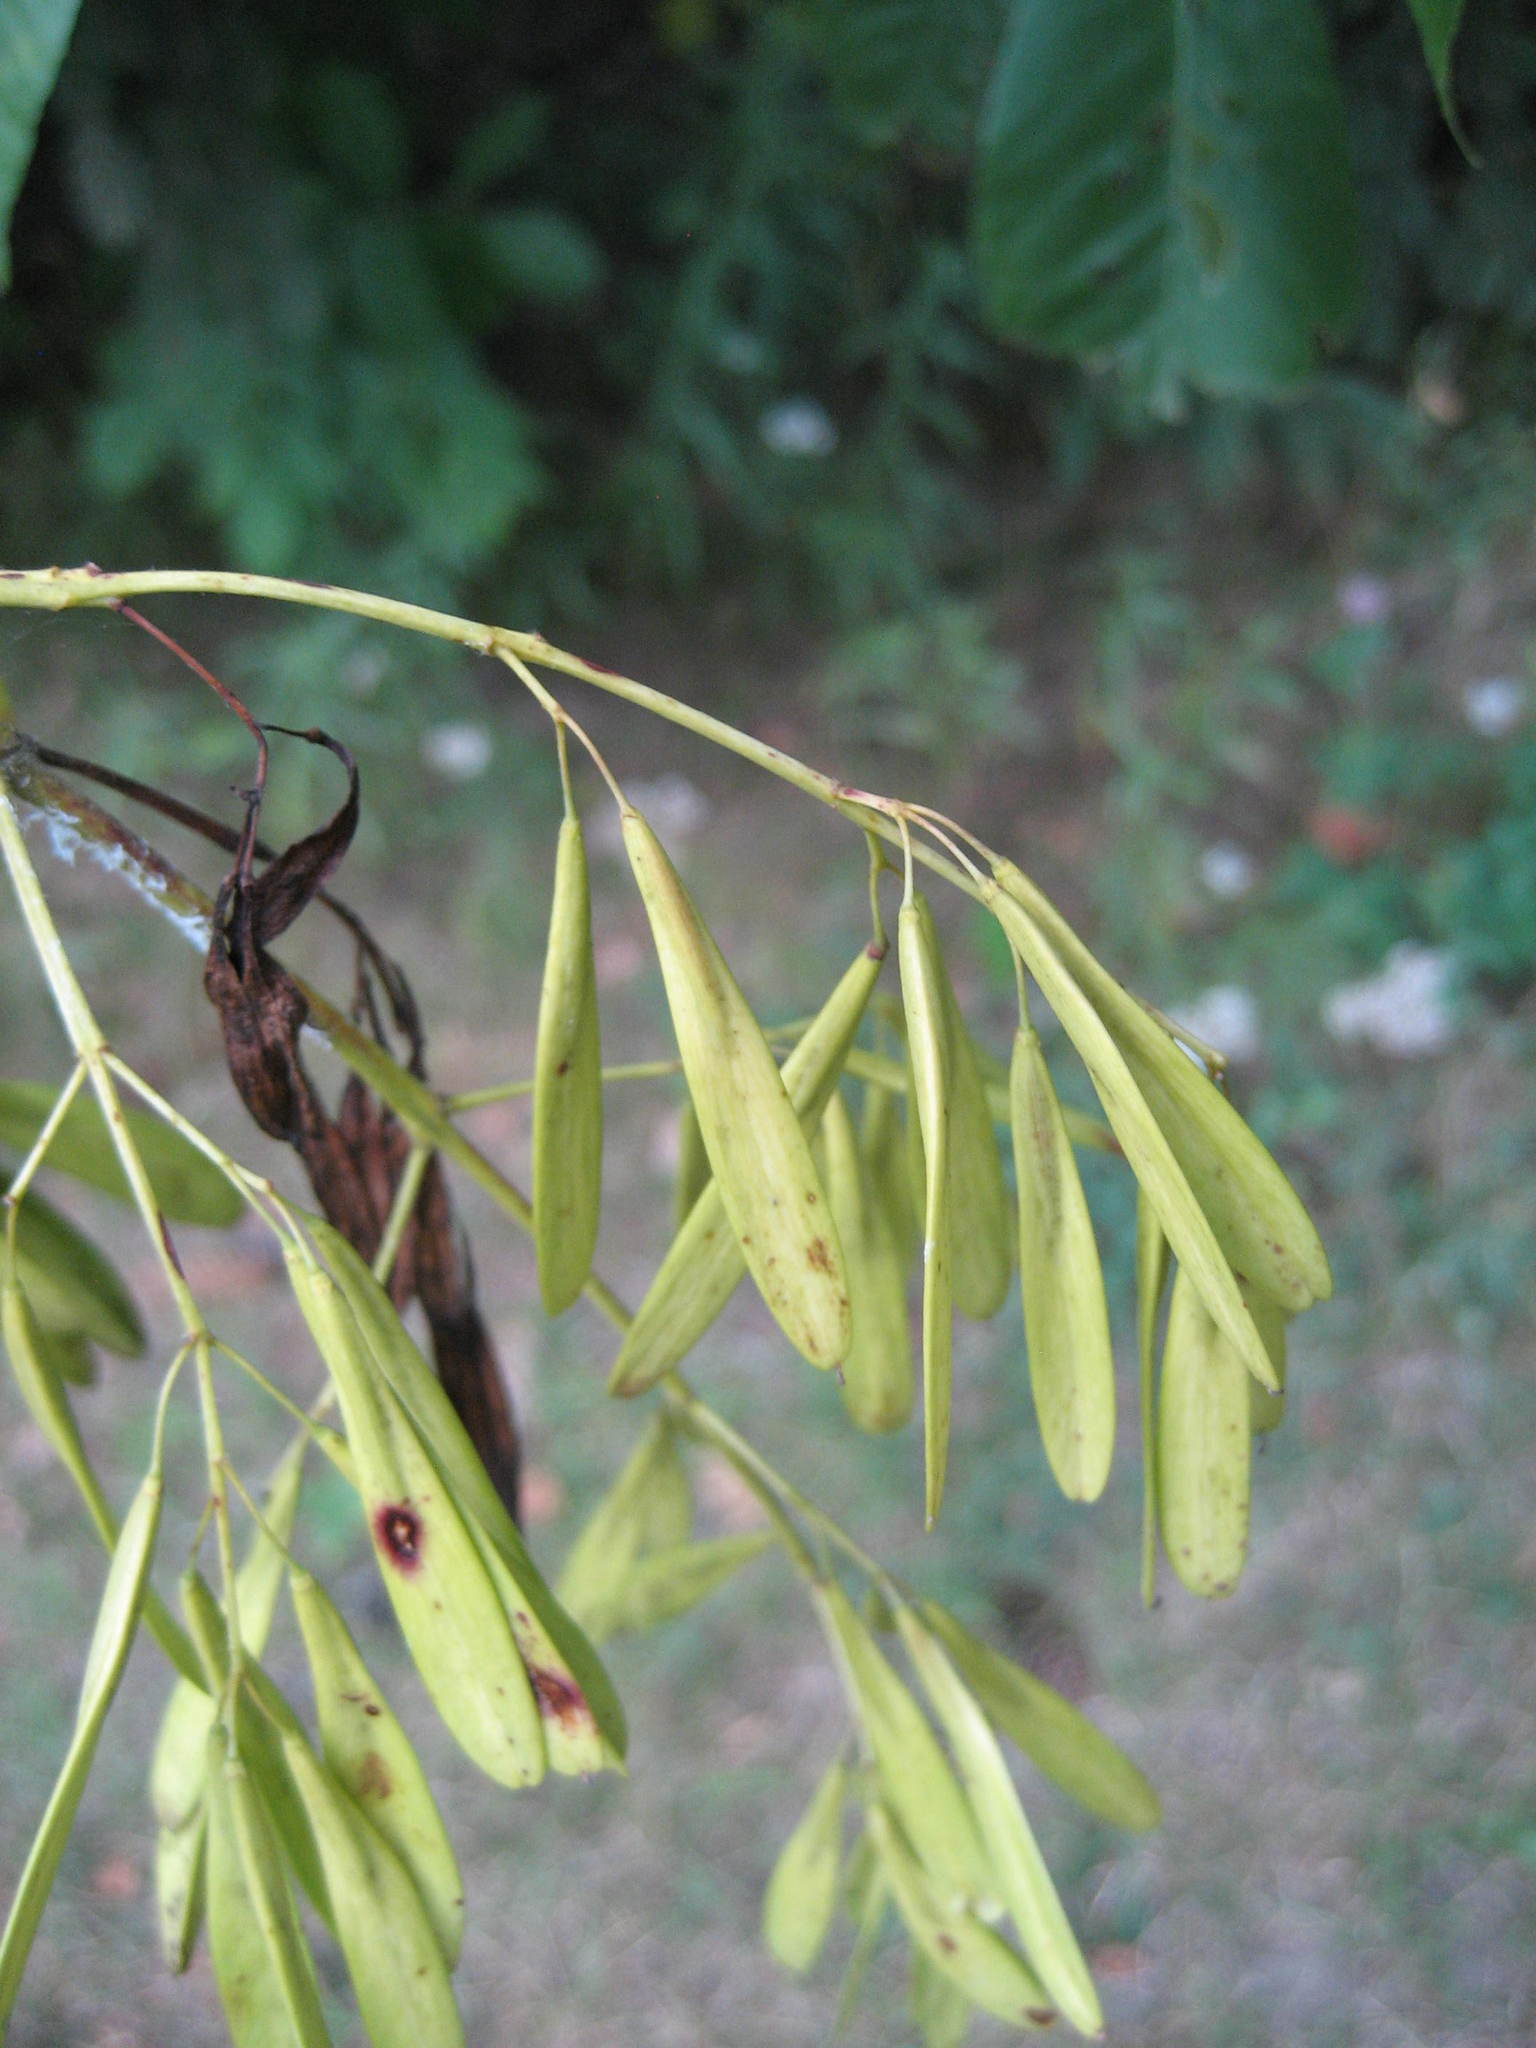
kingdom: Plantae
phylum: Tracheophyta
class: Magnoliopsida
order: Lamiales
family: Oleaceae
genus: Fraxinus
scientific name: Fraxinus pennsylvanica
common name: Green ash
